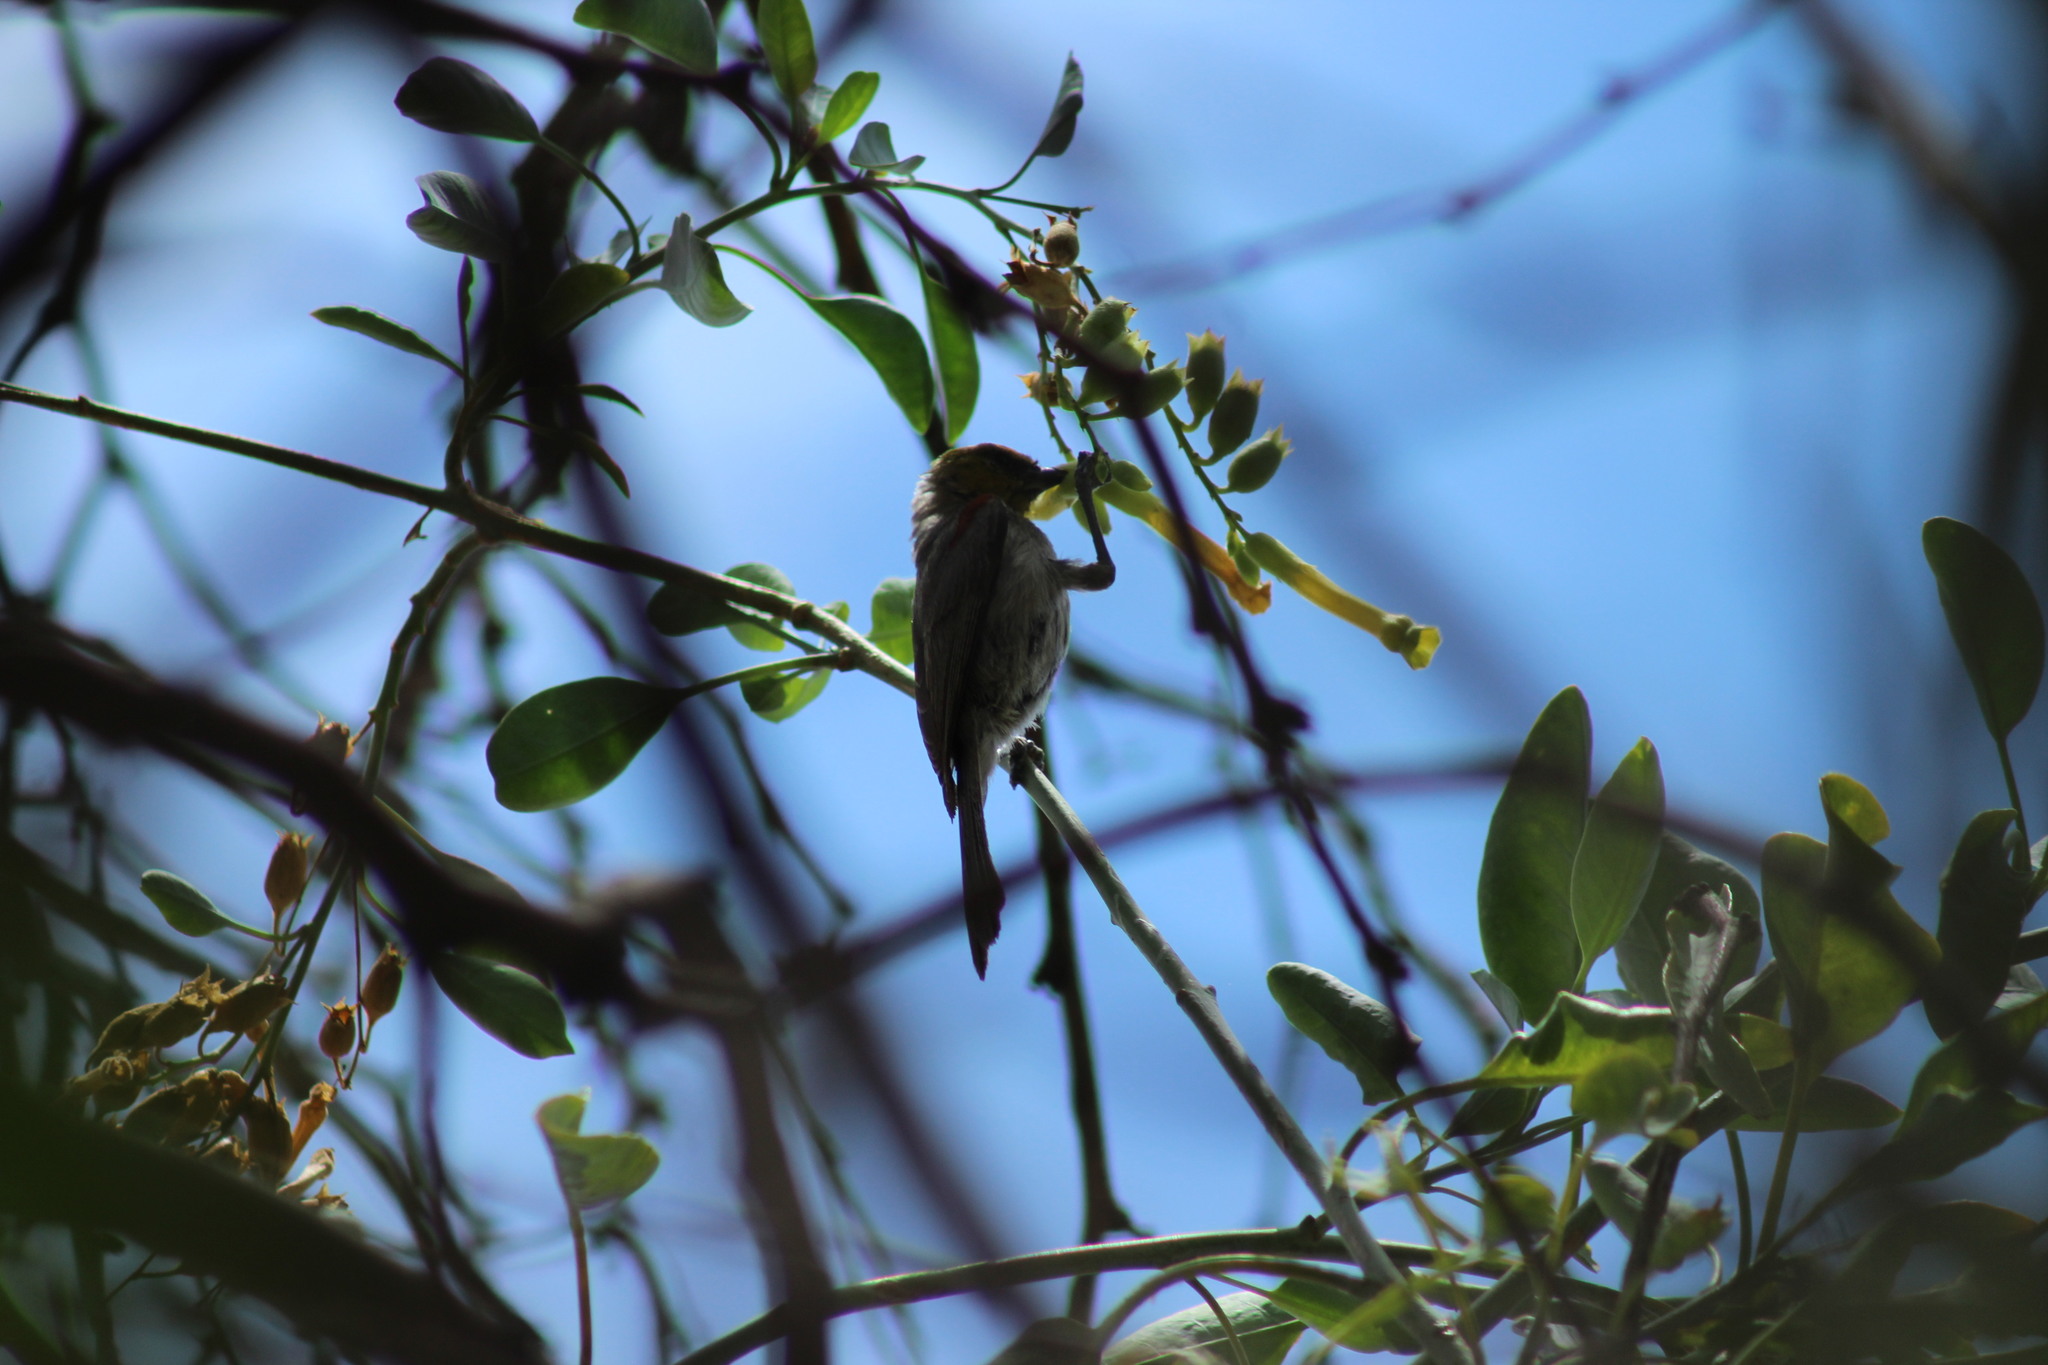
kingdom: Animalia
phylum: Chordata
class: Aves
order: Passeriformes
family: Remizidae
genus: Auriparus
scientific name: Auriparus flaviceps
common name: Verdin
